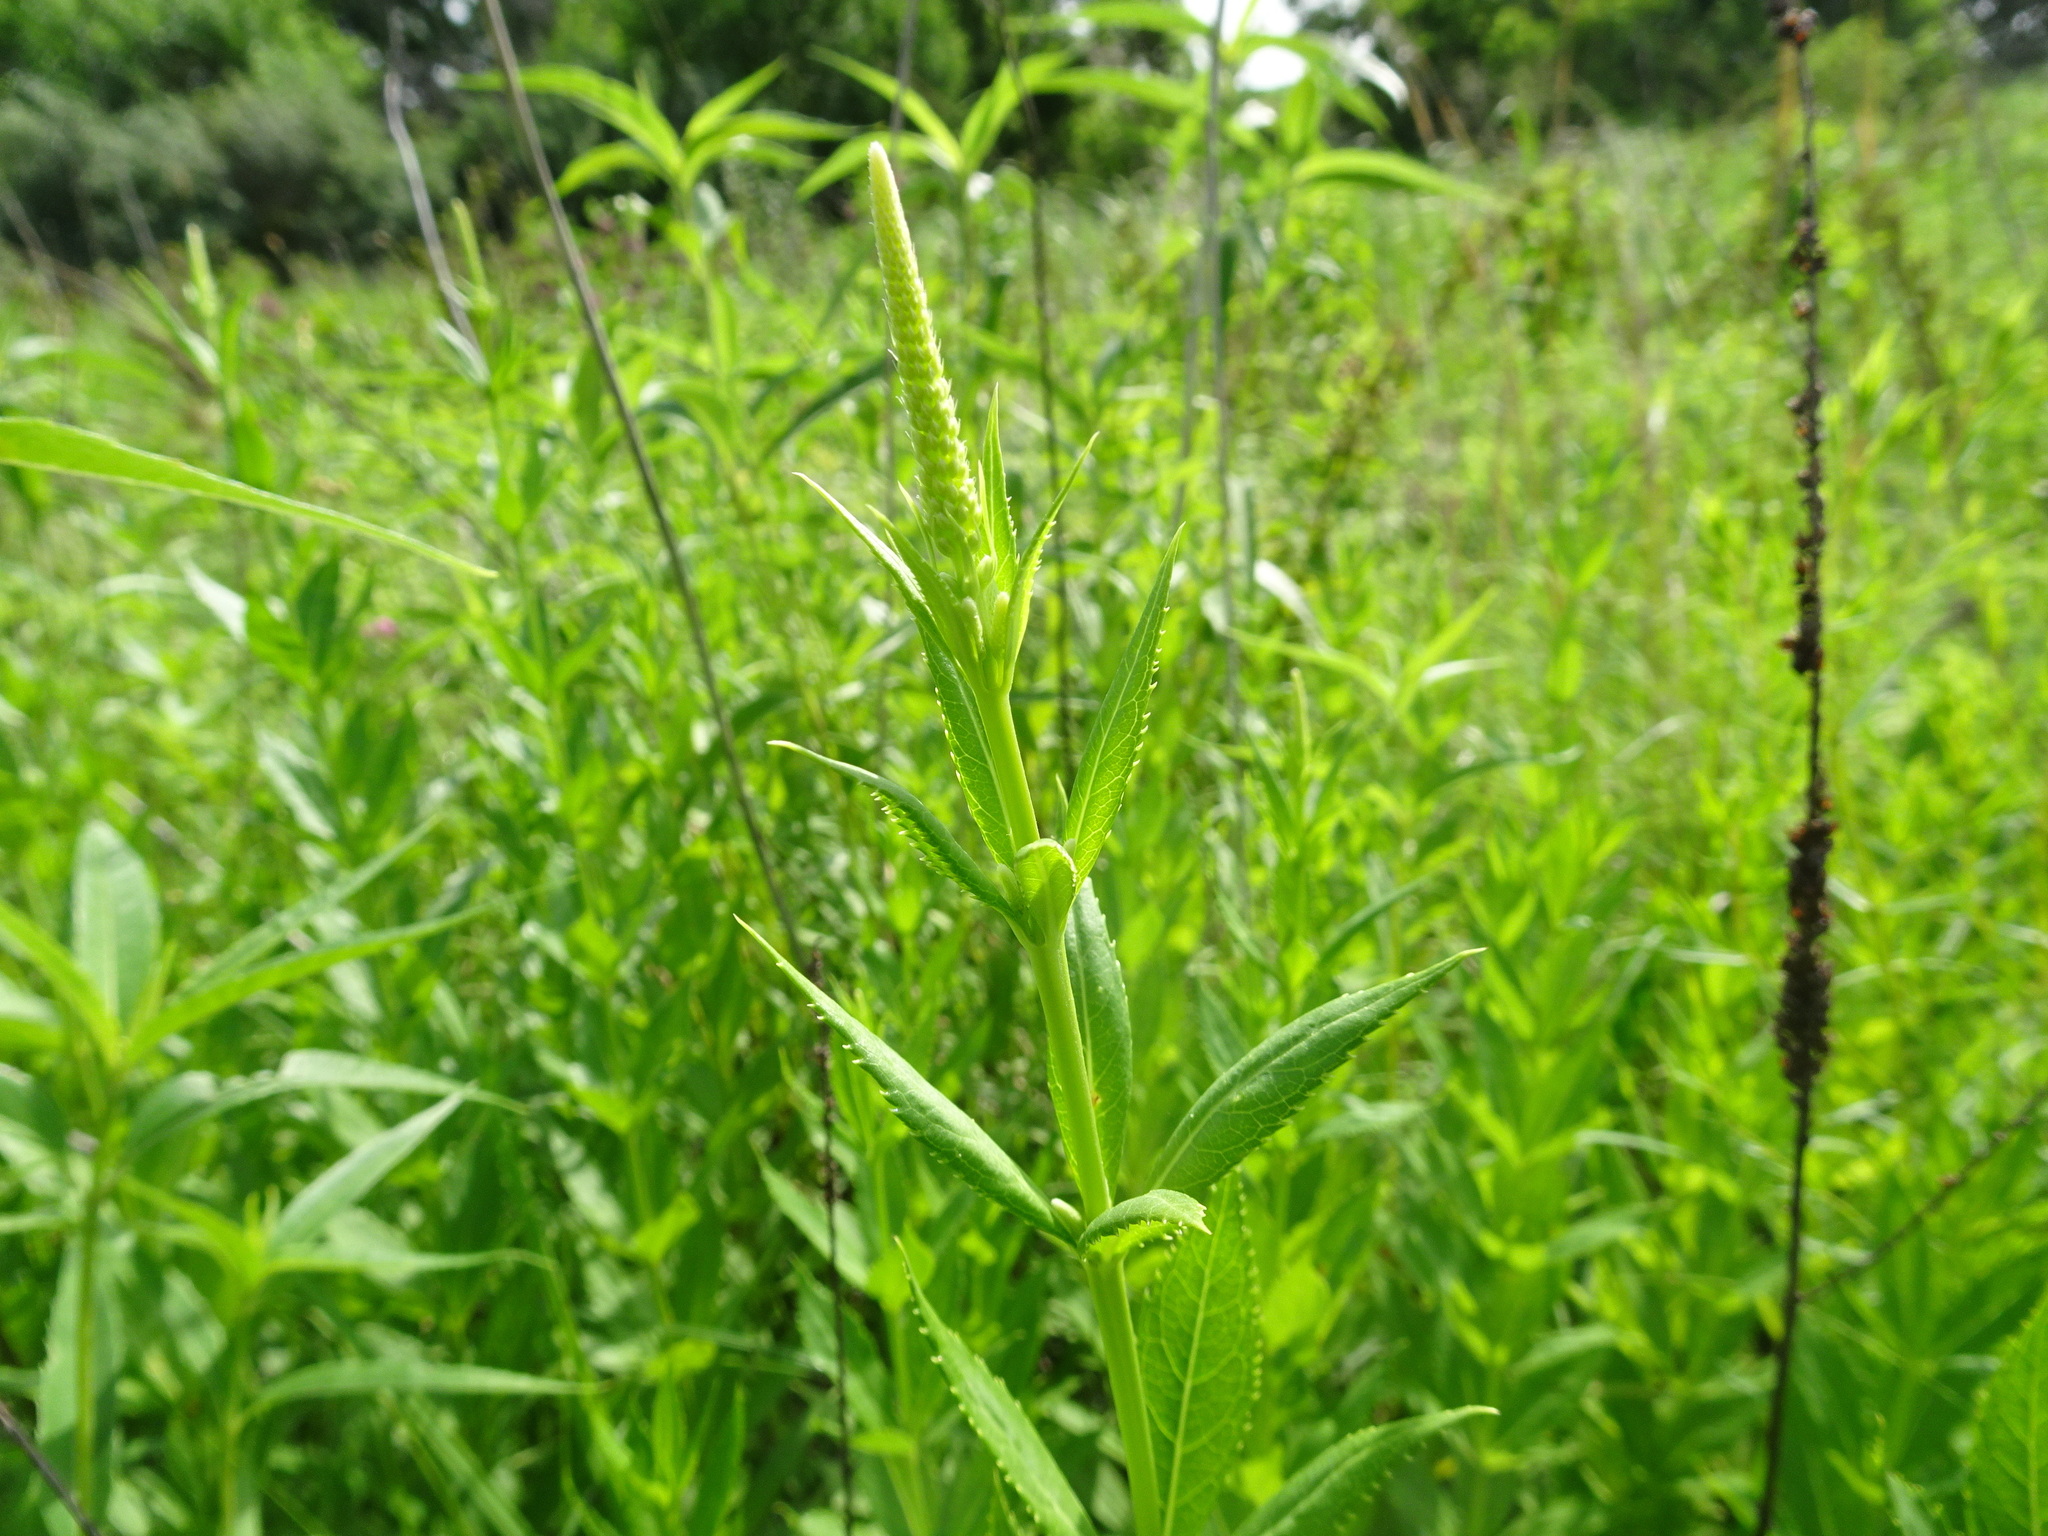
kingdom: Plantae
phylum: Tracheophyta
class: Magnoliopsida
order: Lamiales
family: Plantaginaceae
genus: Veronicastrum
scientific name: Veronicastrum virginicum
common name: Blackroot
